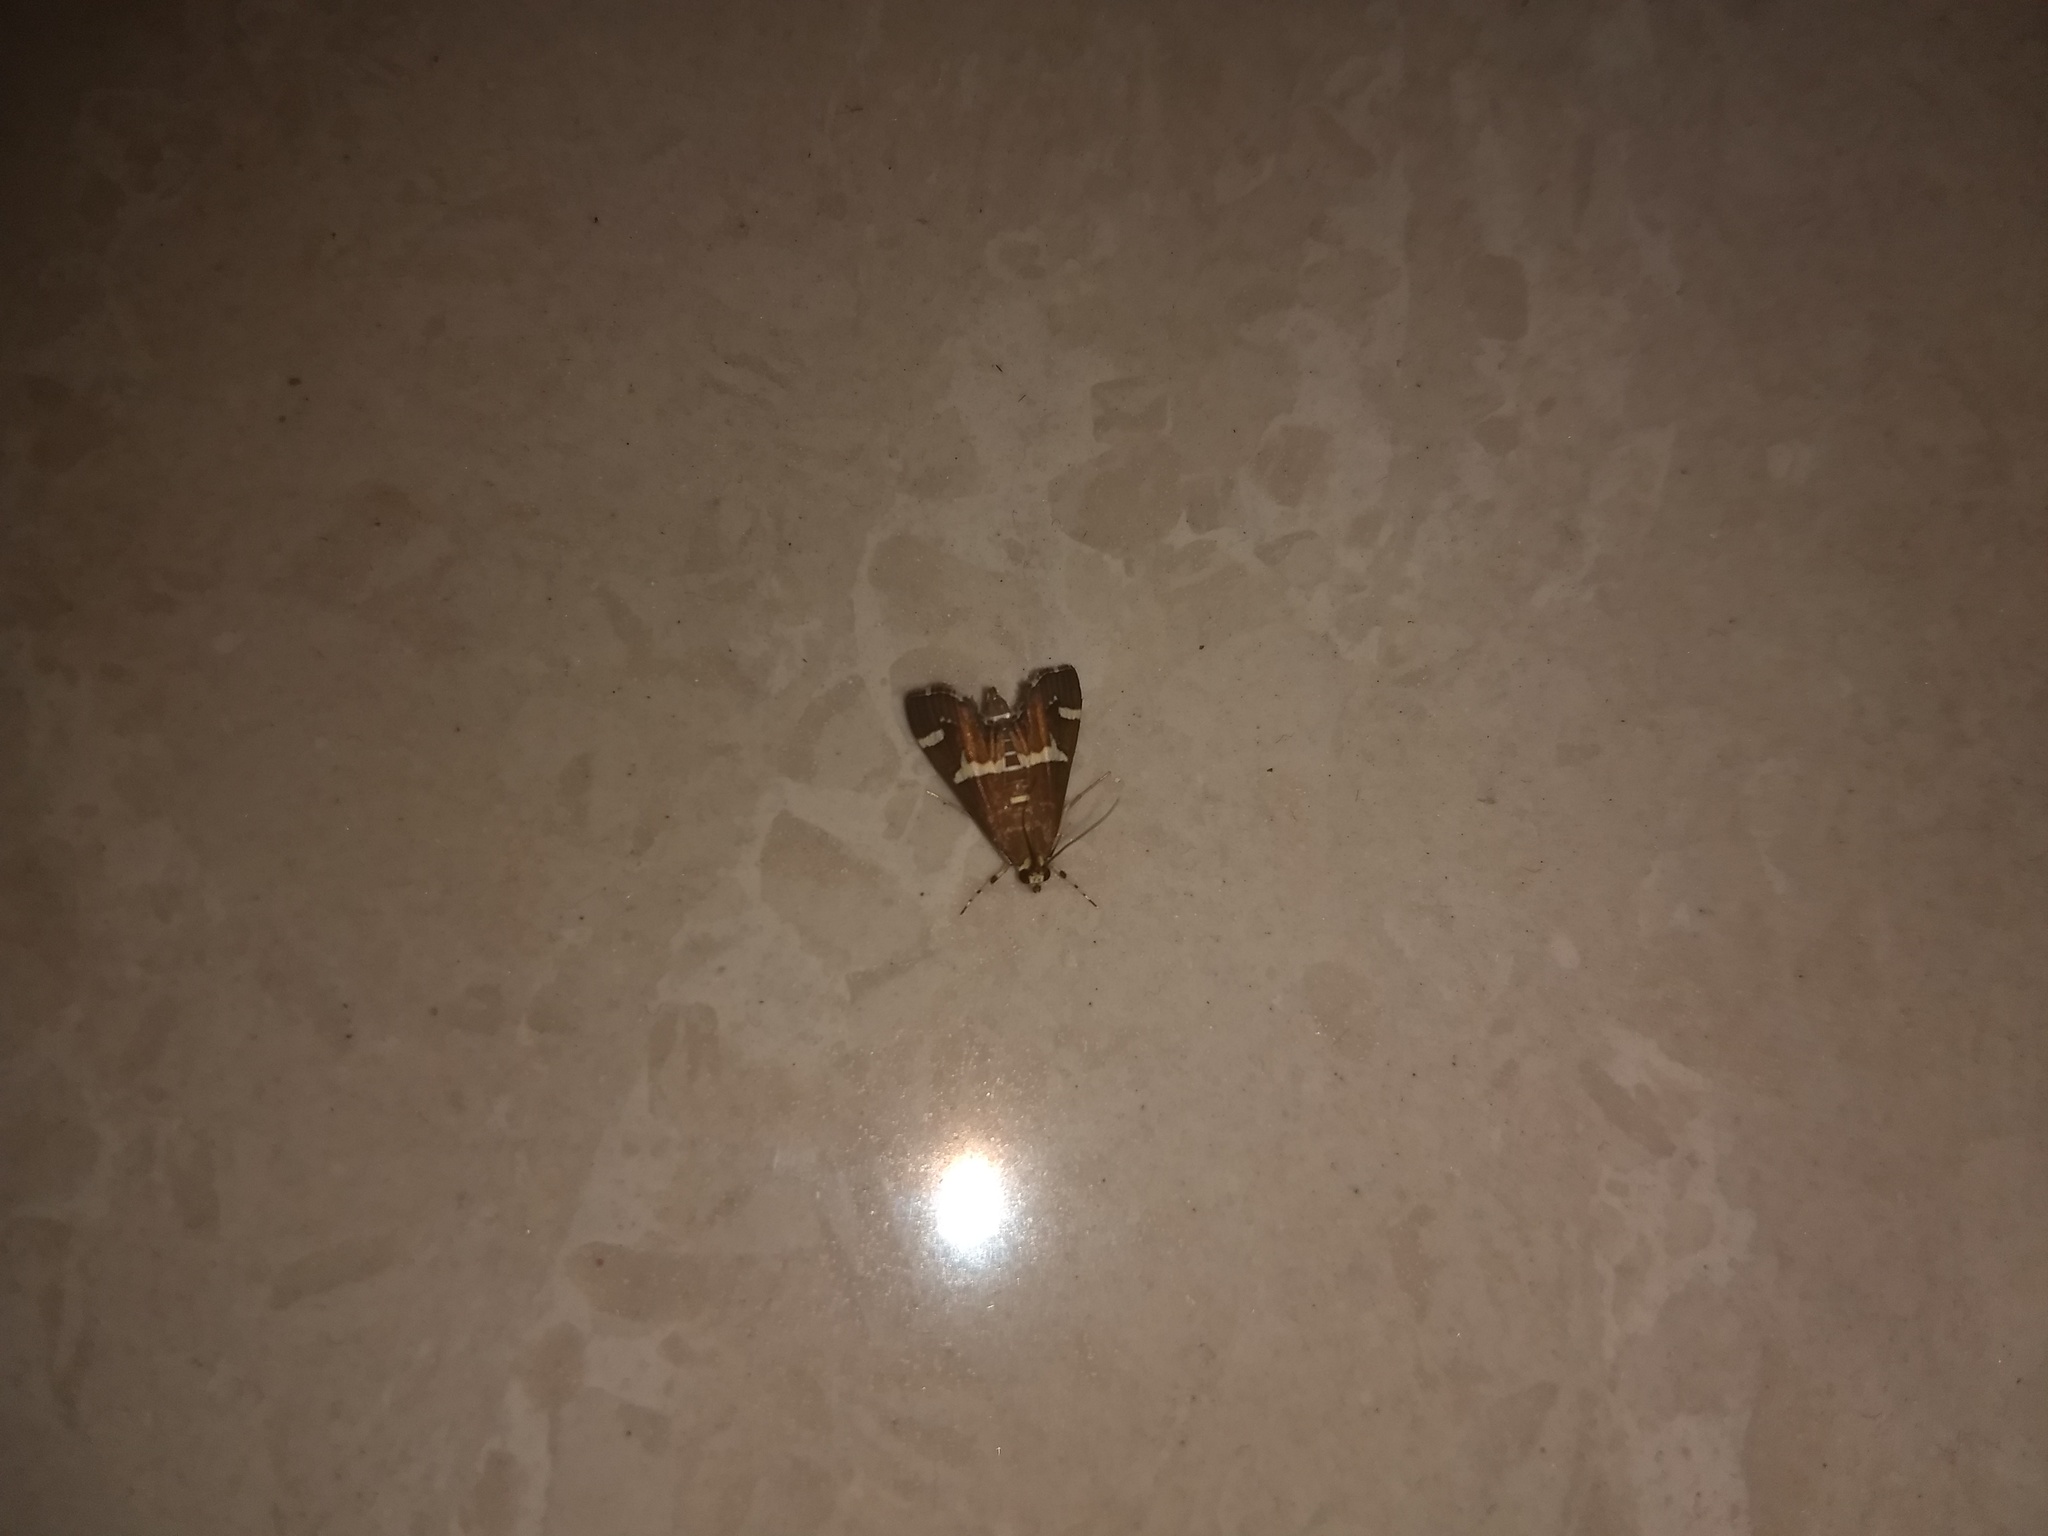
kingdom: Animalia
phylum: Arthropoda
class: Insecta
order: Lepidoptera
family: Crambidae
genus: Spoladea
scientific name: Spoladea recurvalis
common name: Beet webworm moth
